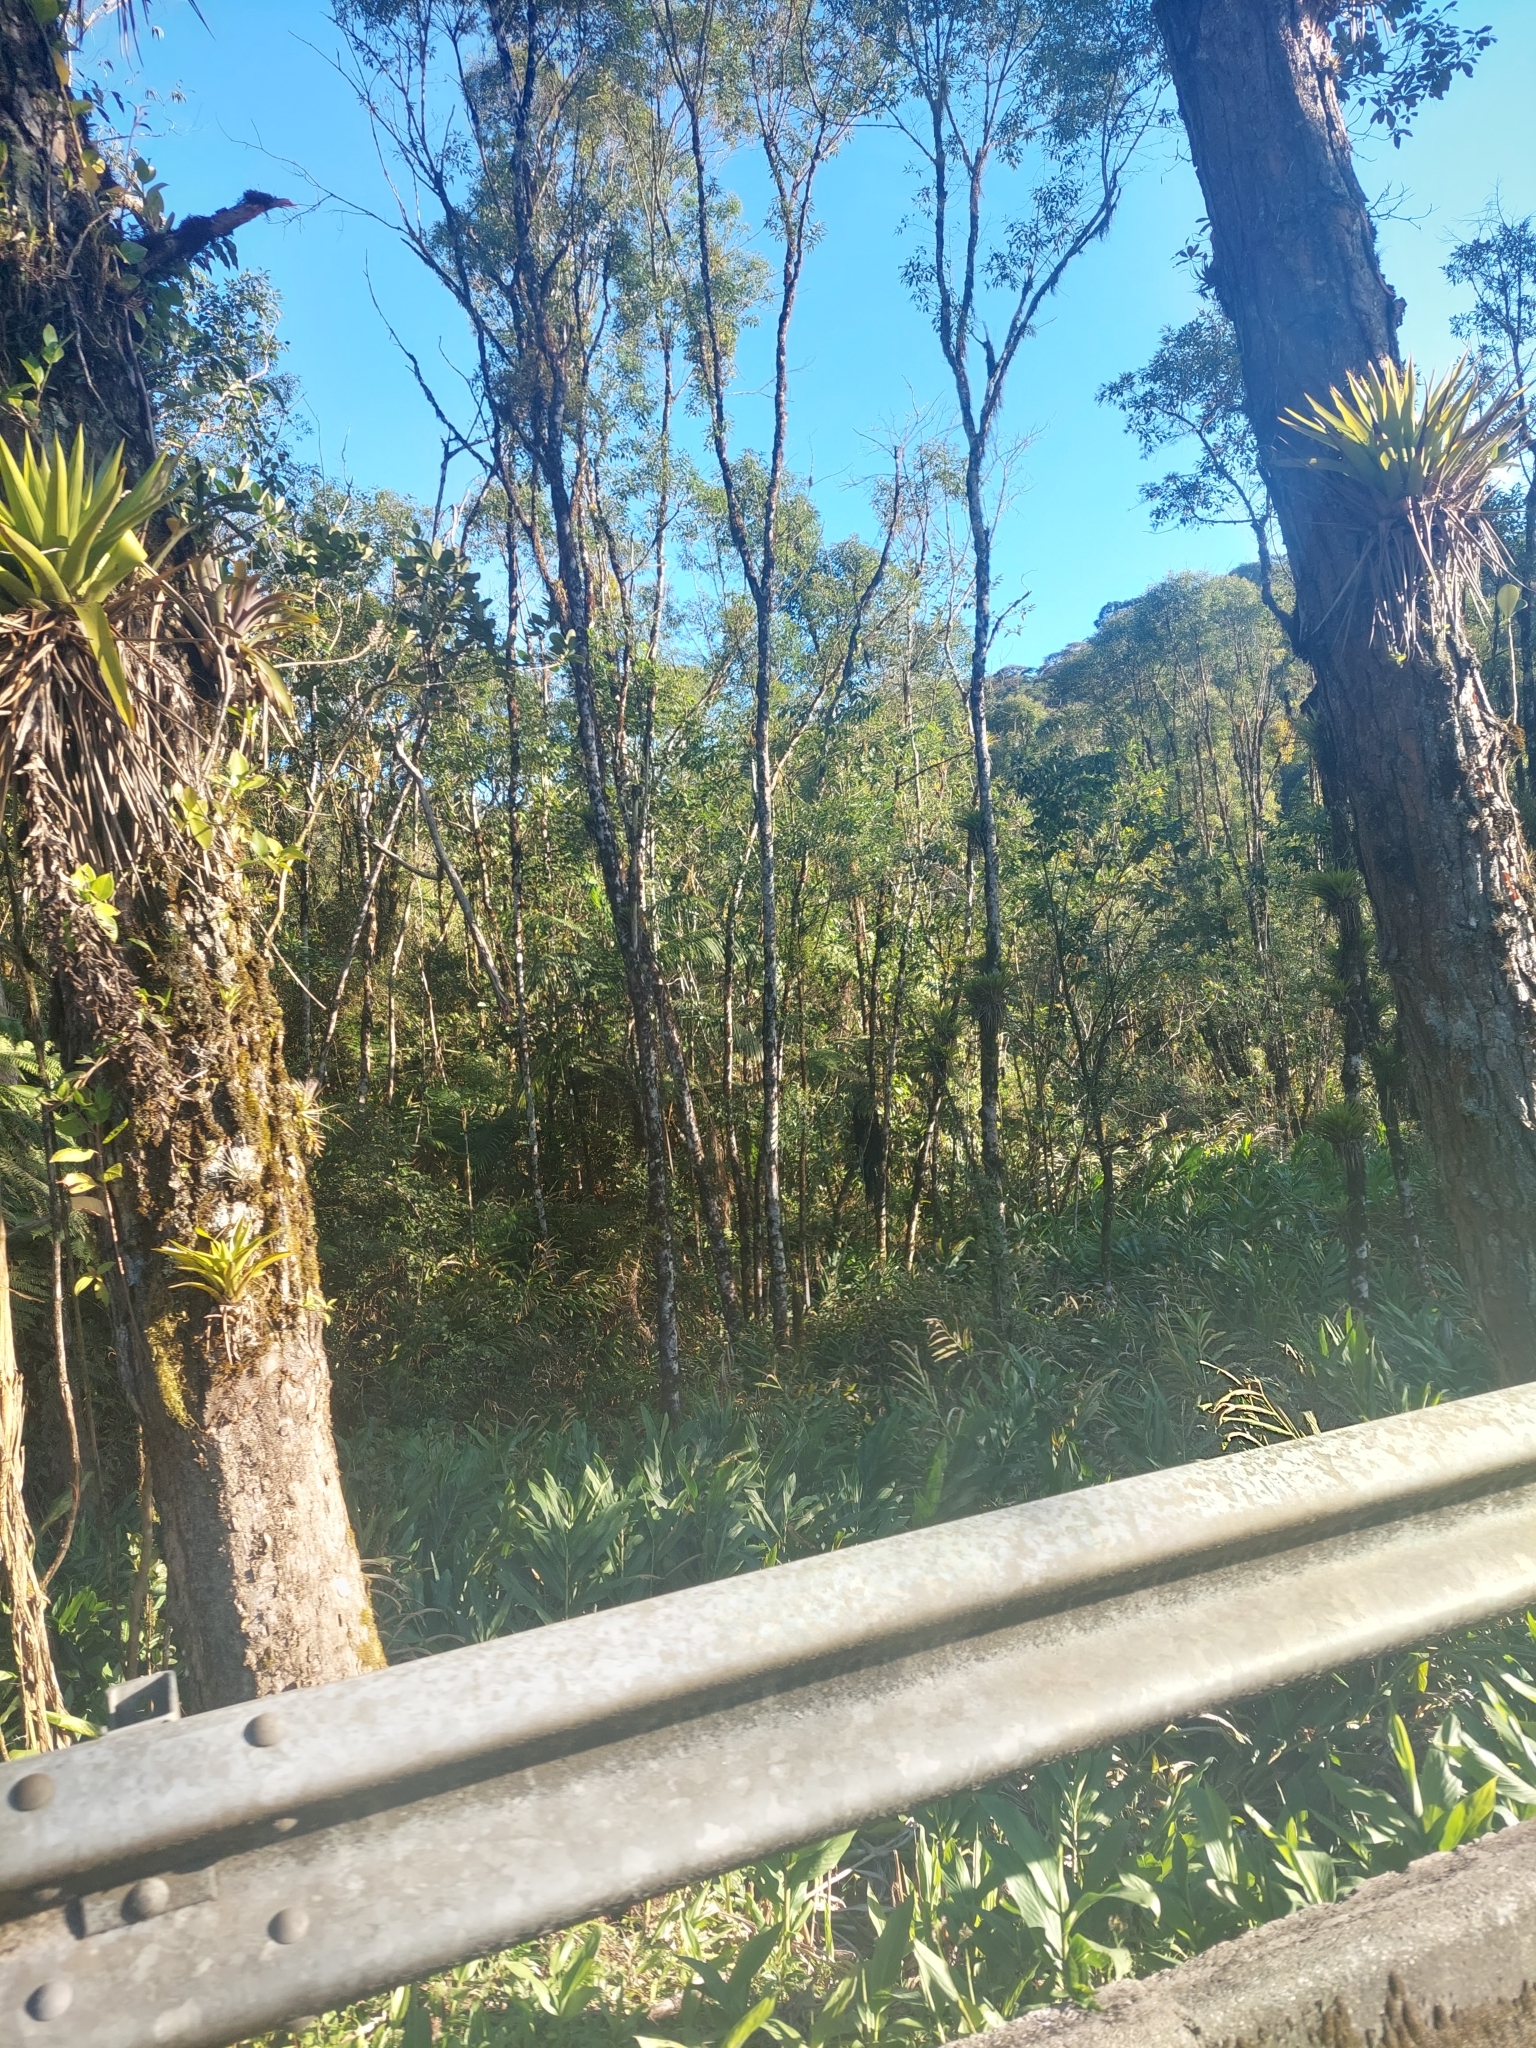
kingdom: Plantae
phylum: Tracheophyta
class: Liliopsida
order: Zingiberales
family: Zingiberaceae
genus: Hedychium
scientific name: Hedychium coronarium
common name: White garland-lily
